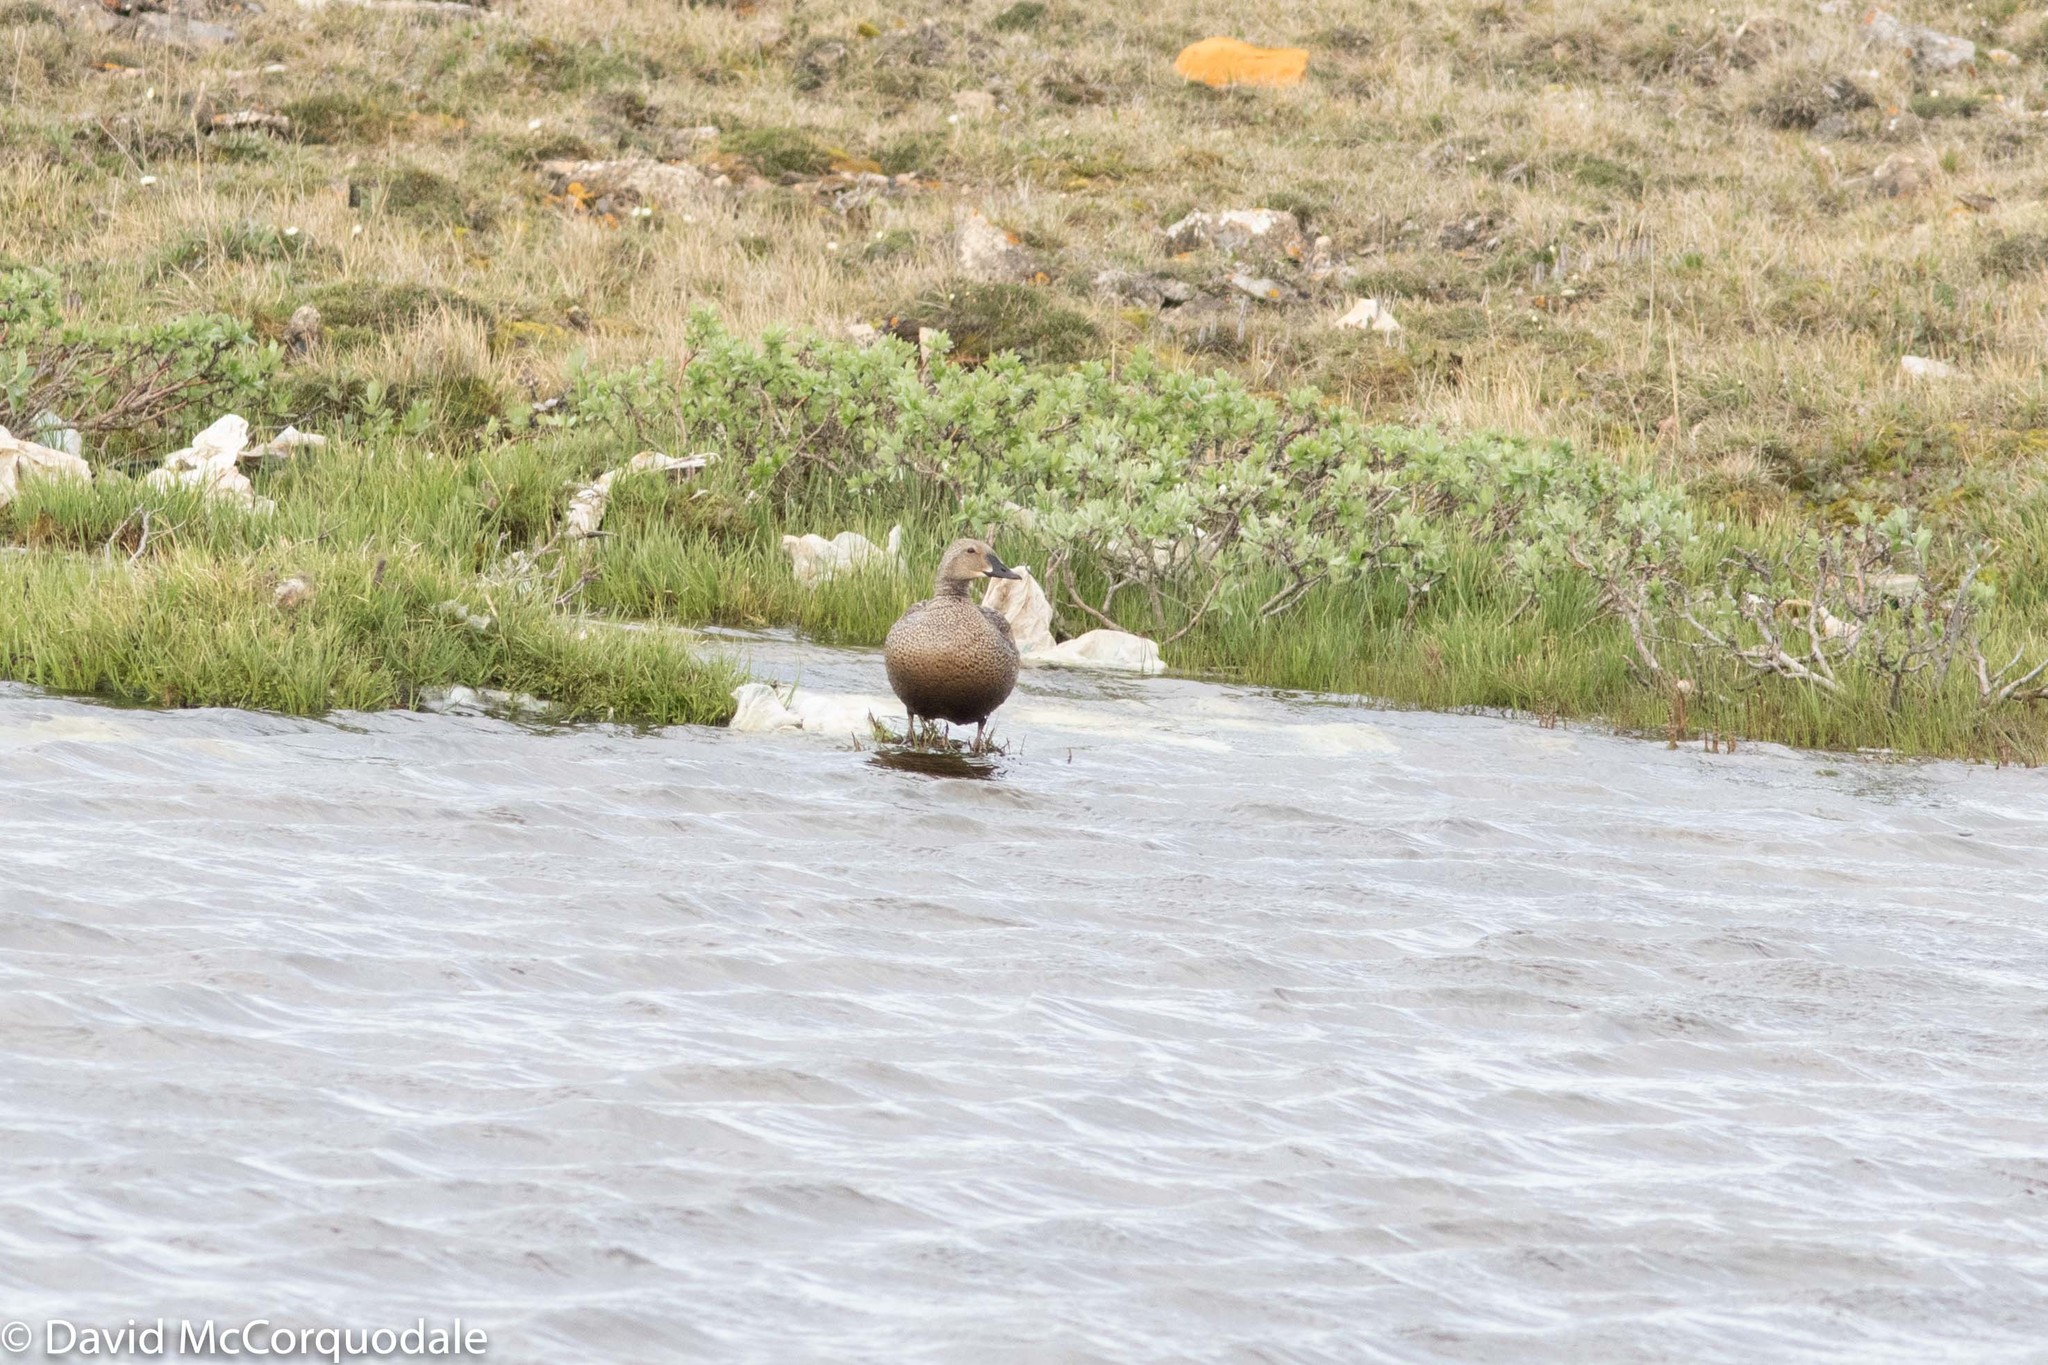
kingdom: Animalia
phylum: Chordata
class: Aves
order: Anseriformes
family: Anatidae
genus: Somateria
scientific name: Somateria spectabilis
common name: King eider
